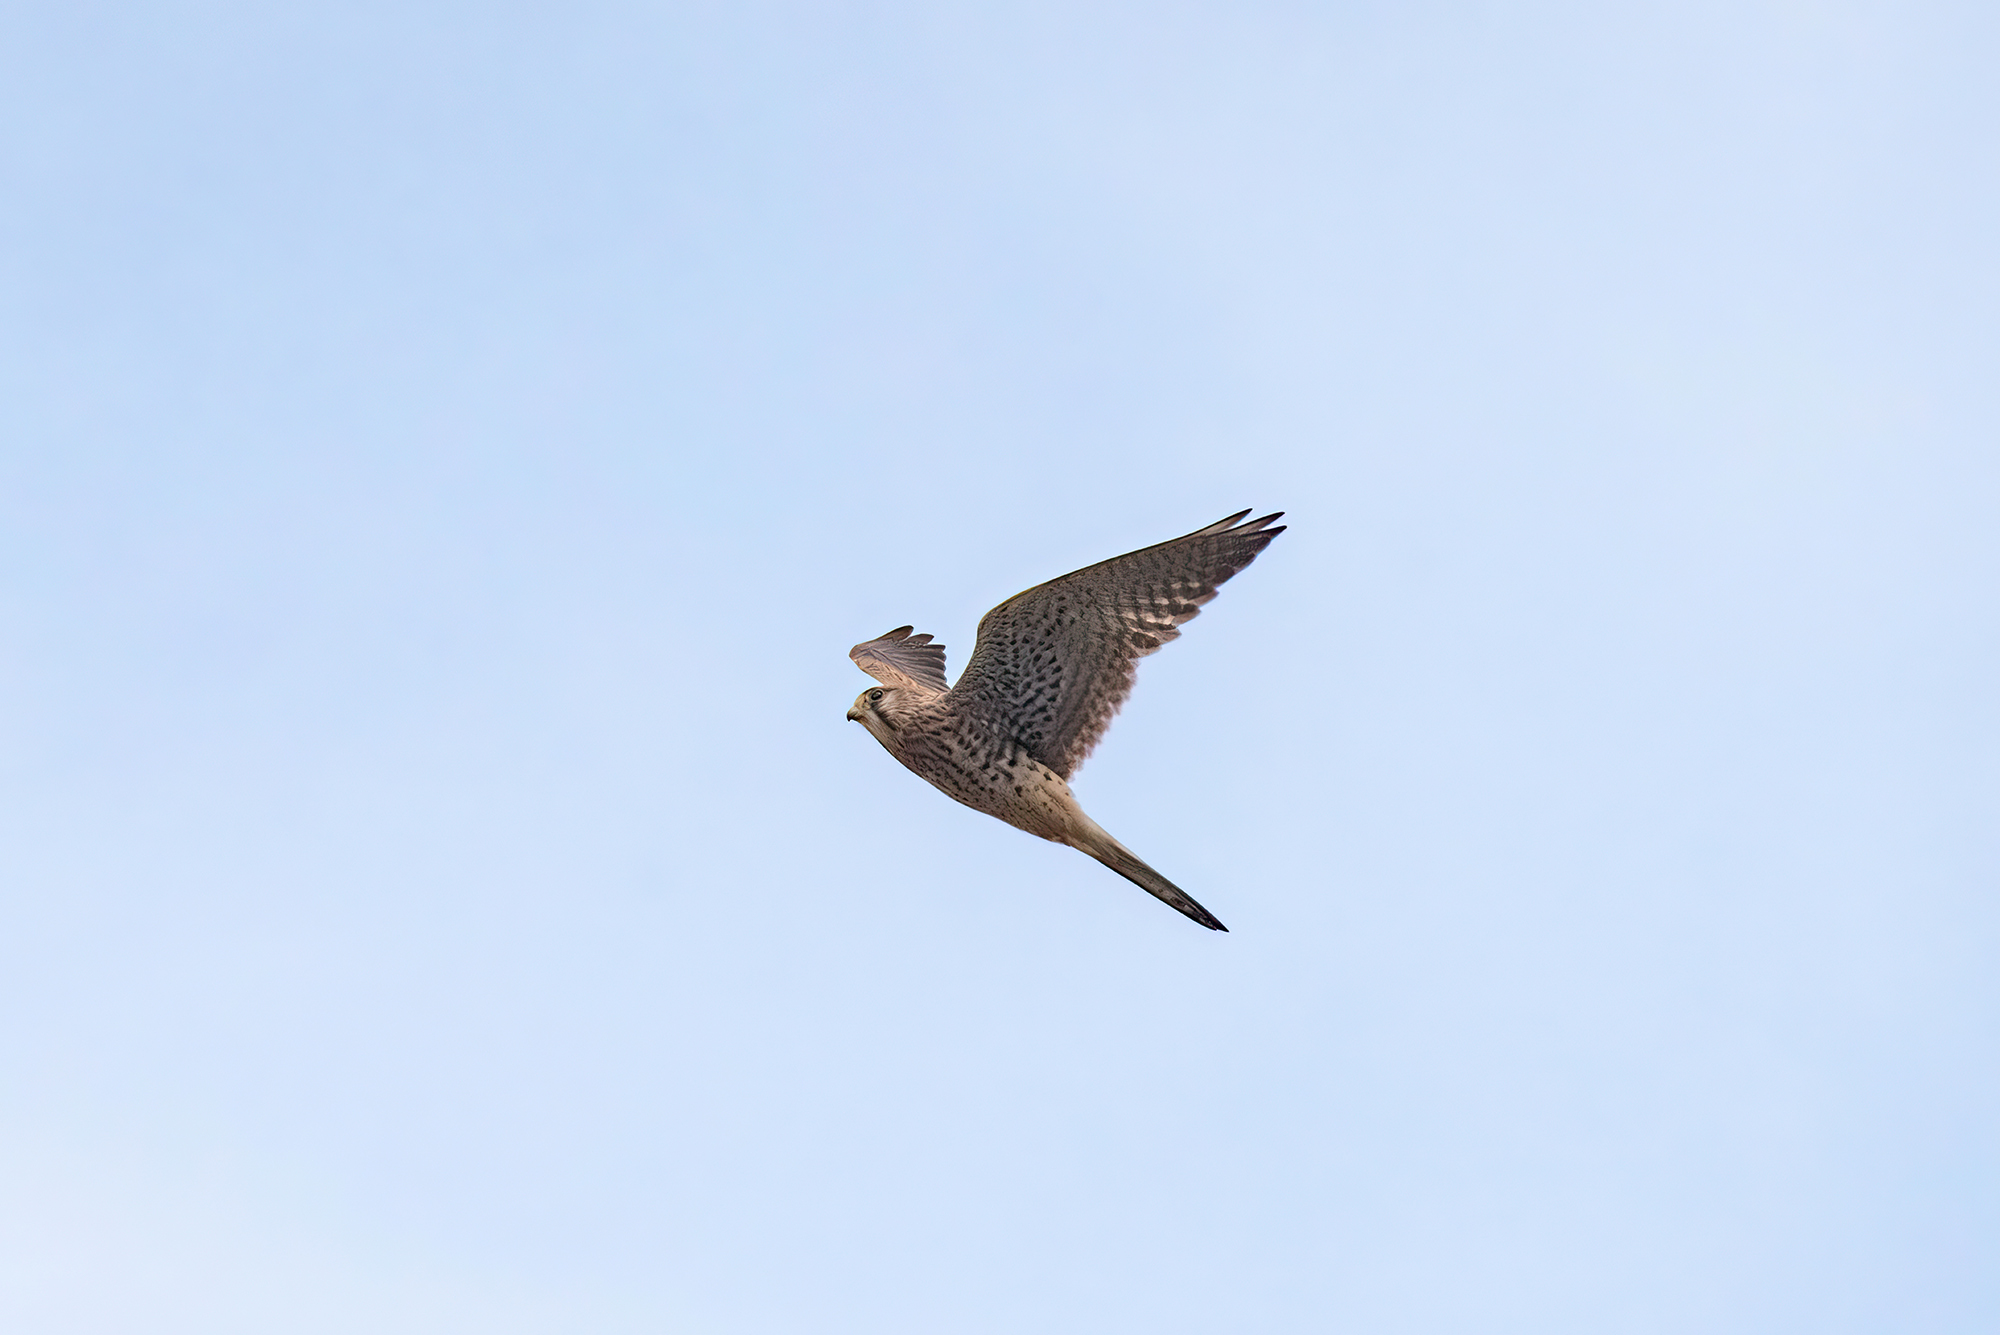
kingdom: Animalia
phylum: Chordata
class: Aves
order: Falconiformes
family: Falconidae
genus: Falco
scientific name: Falco tinnunculus
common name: Common kestrel
